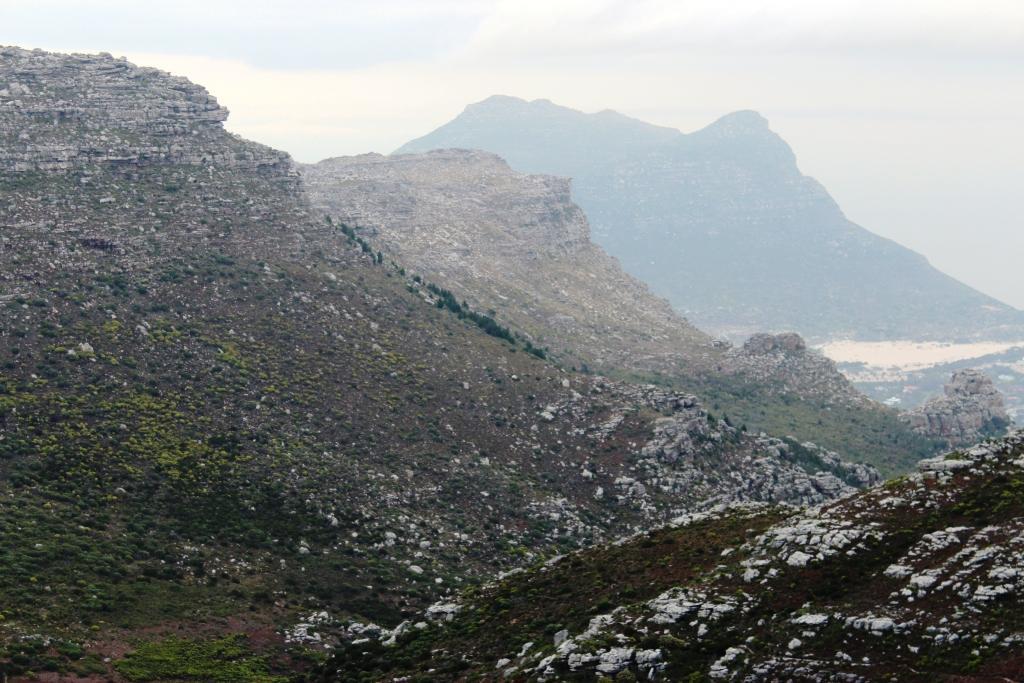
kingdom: Plantae
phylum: Tracheophyta
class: Pinopsida
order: Pinales
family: Pinaceae
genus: Pinus
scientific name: Pinus pinaster
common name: Maritime pine
